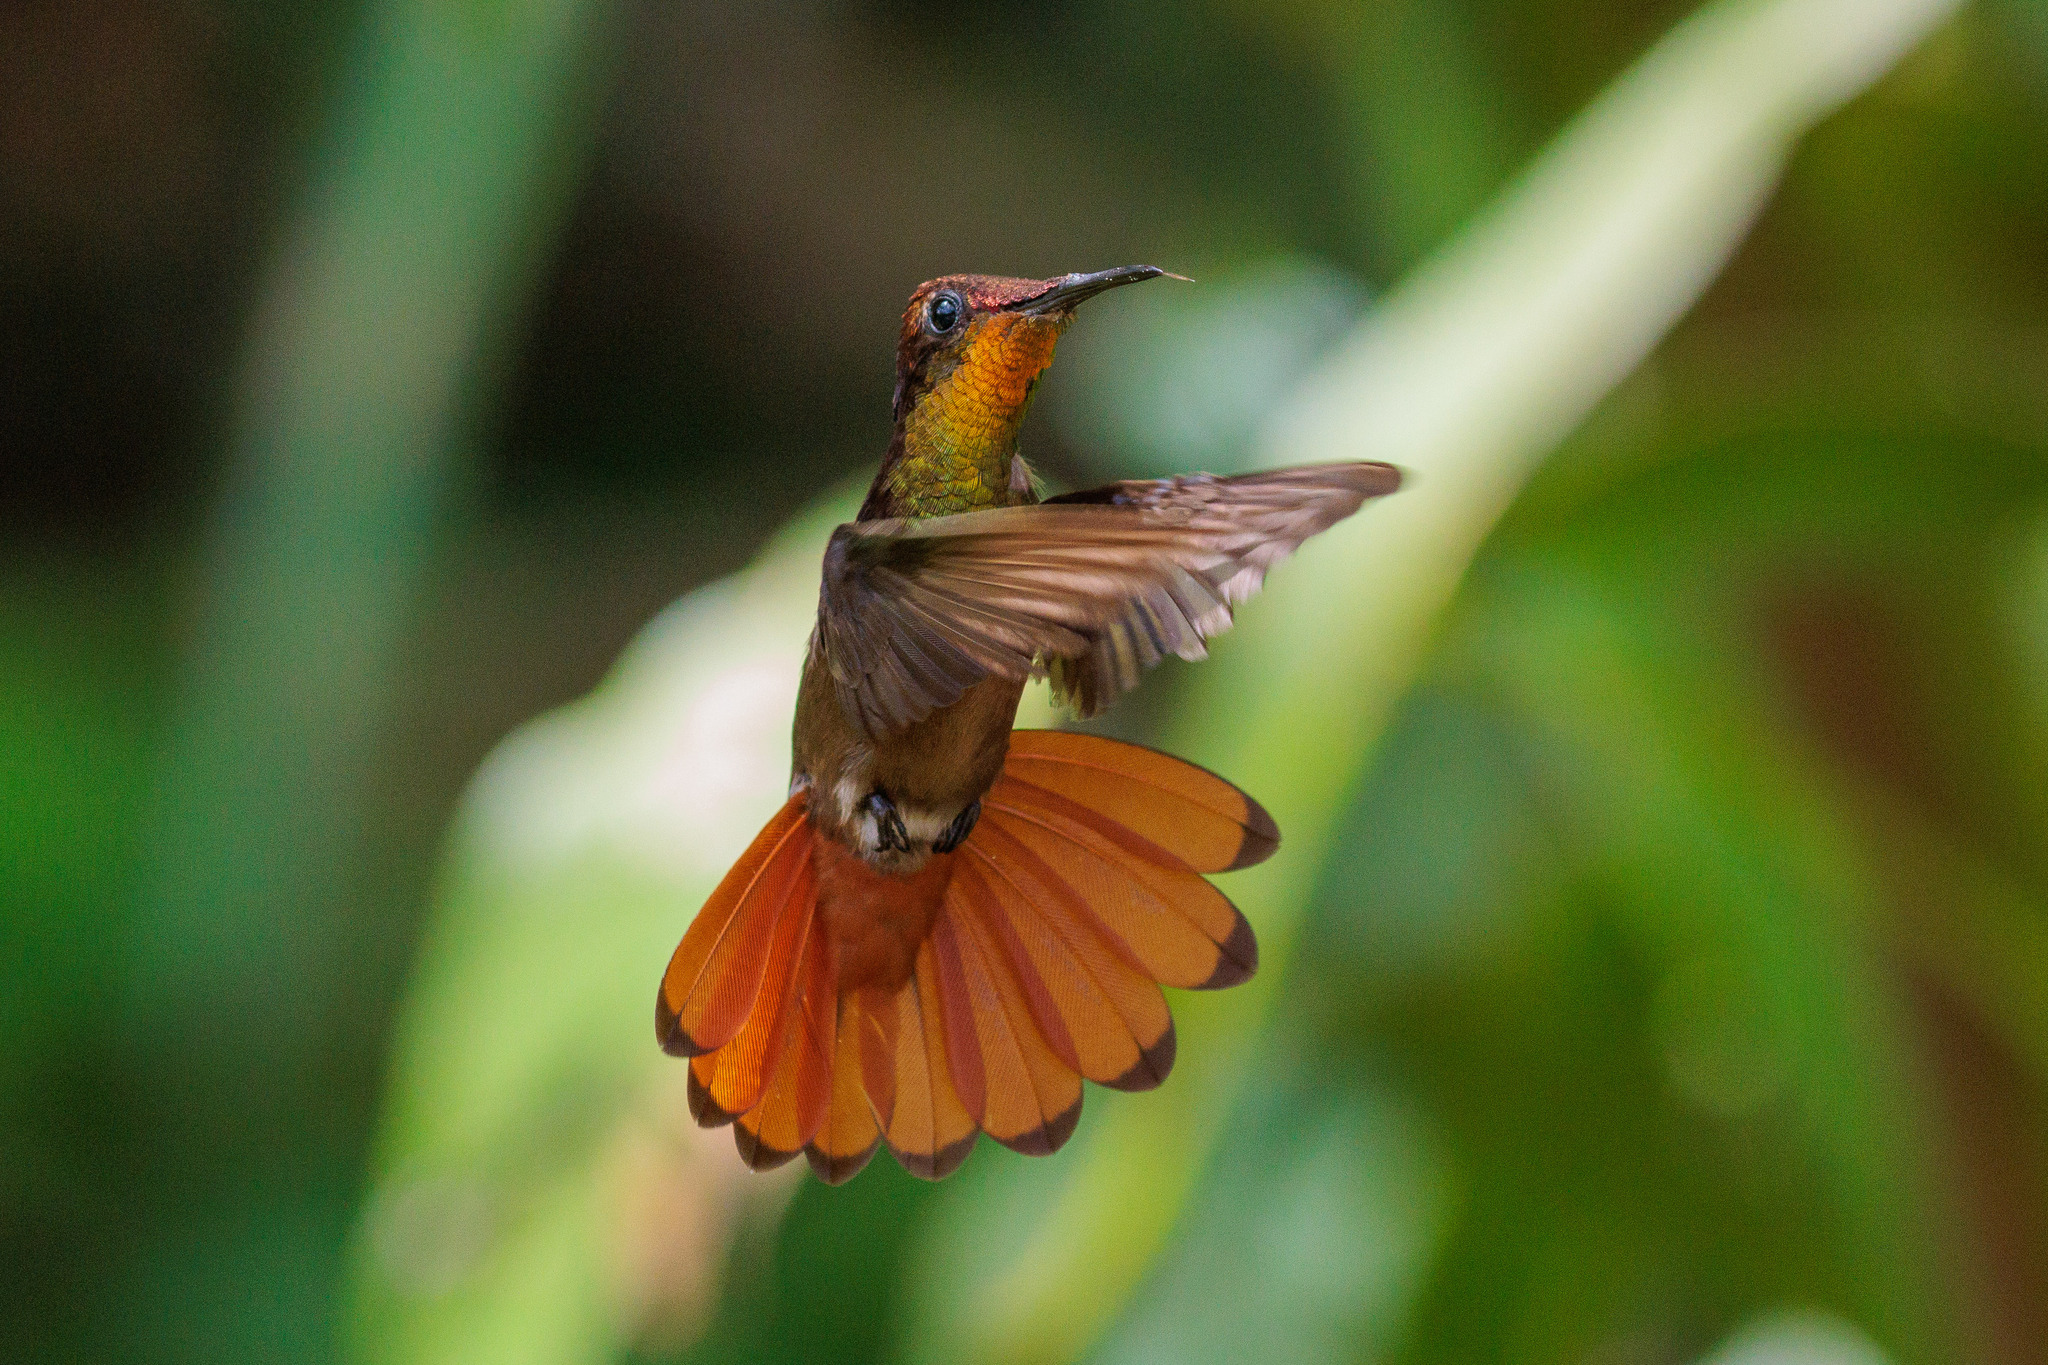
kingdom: Animalia
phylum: Chordata
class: Aves
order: Apodiformes
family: Trochilidae
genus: Chrysolampis
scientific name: Chrysolampis mosquitus
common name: Ruby-topaz hummingbird
